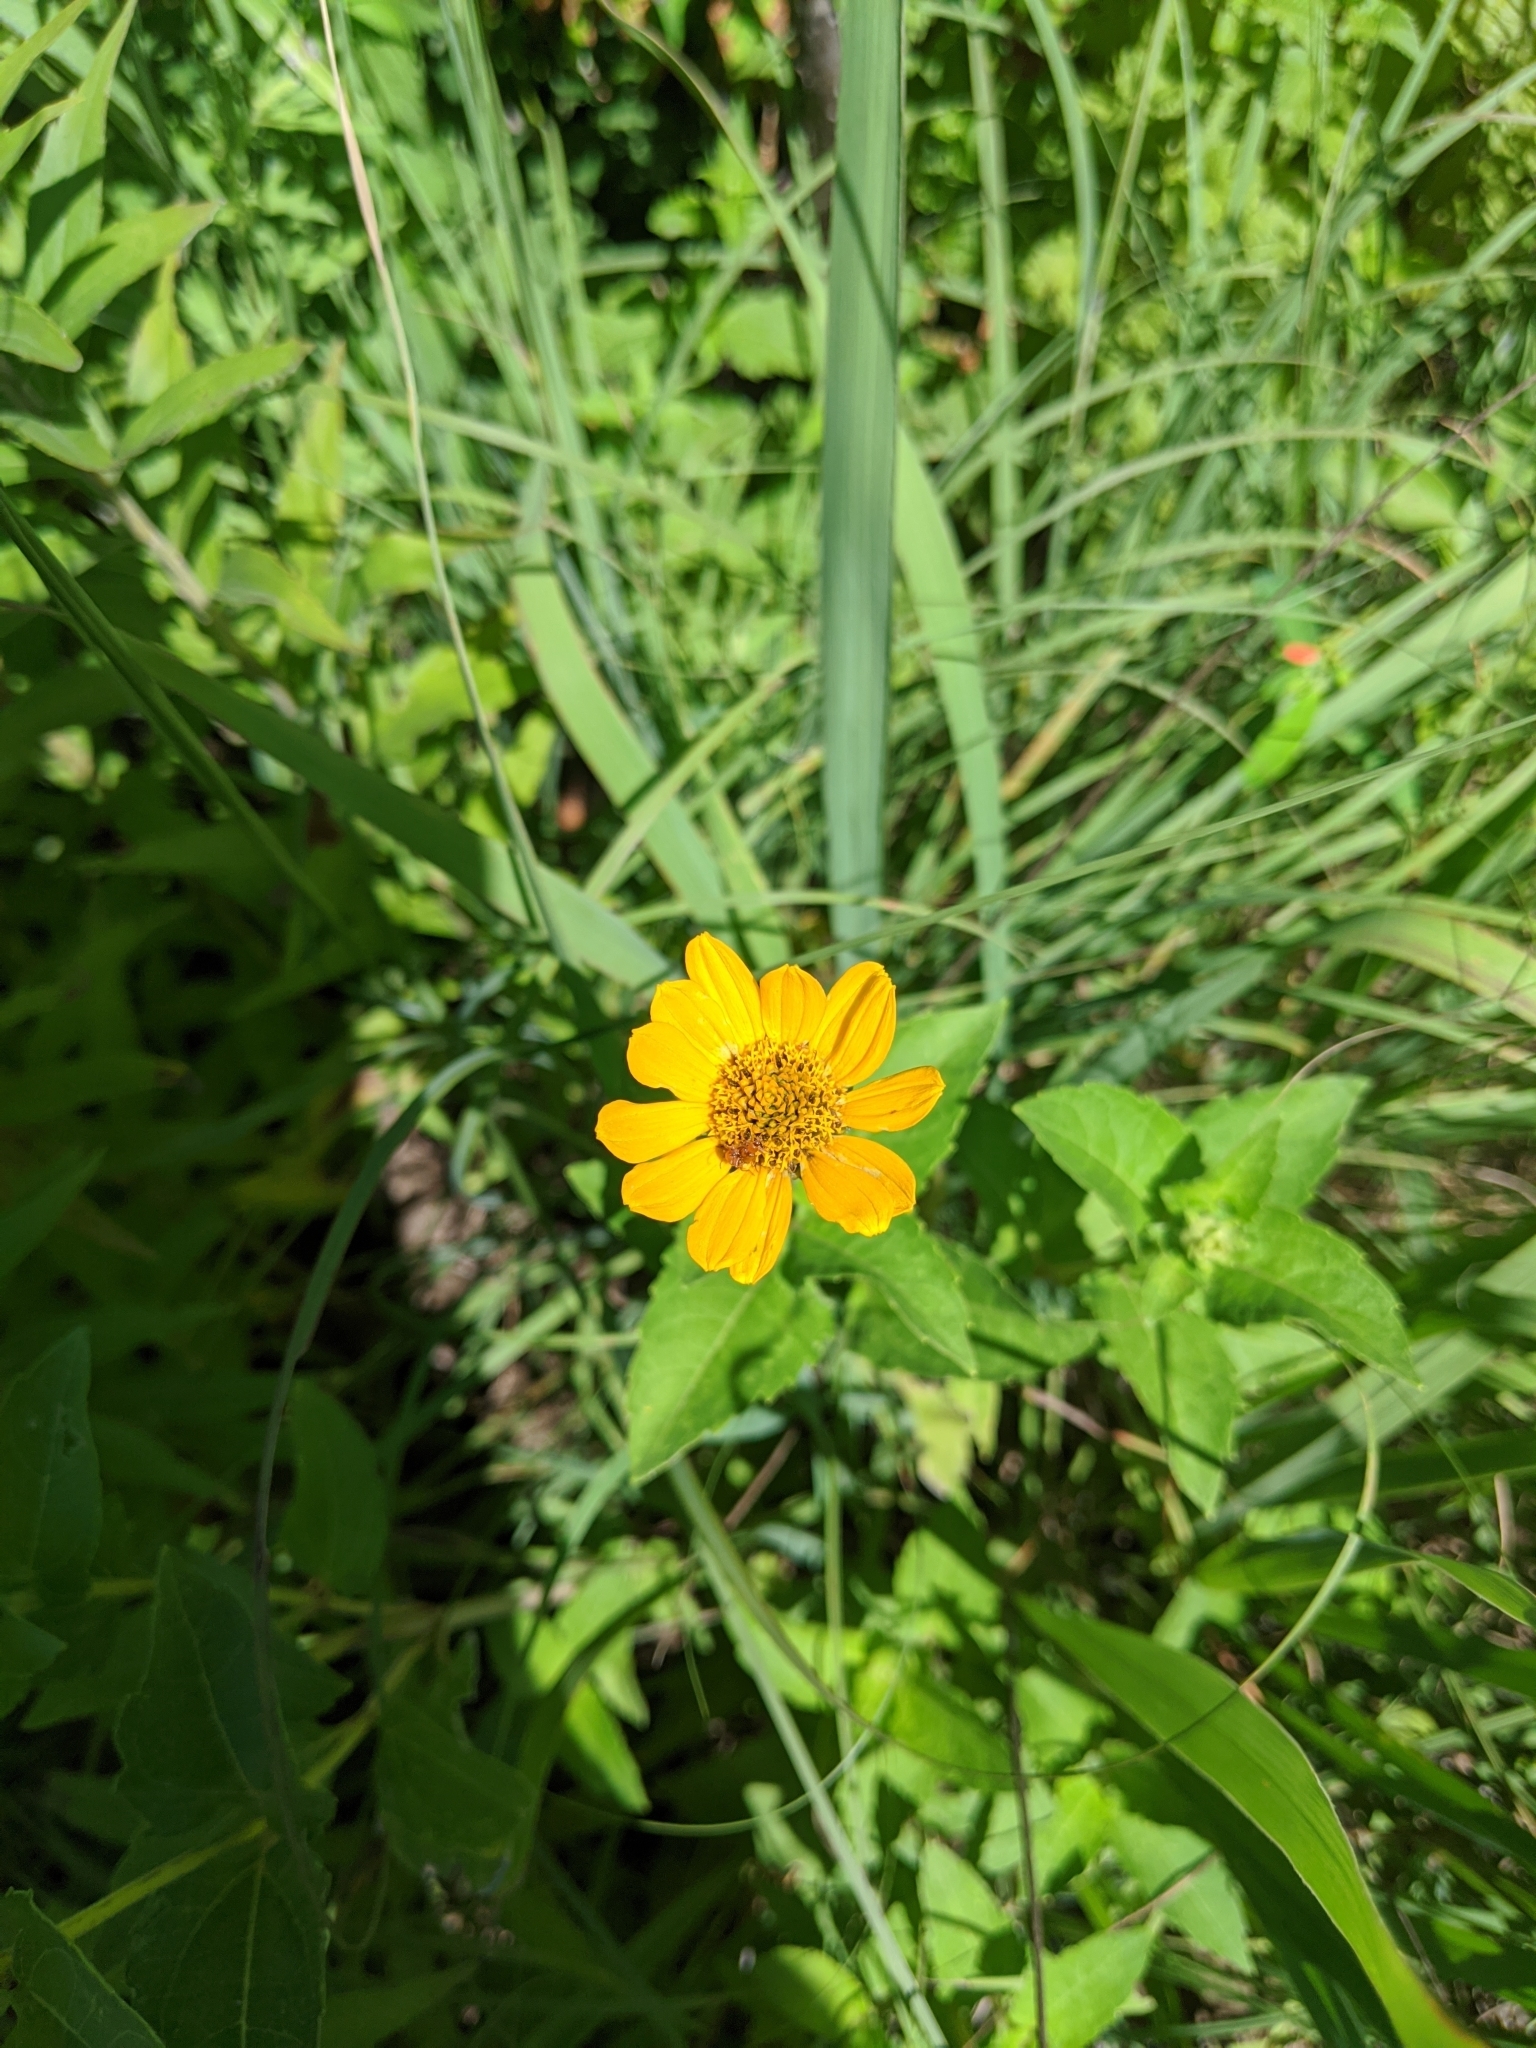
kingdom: Plantae
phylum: Tracheophyta
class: Magnoliopsida
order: Asterales
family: Asteraceae
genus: Heliopsis
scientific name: Heliopsis helianthoides
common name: False sunflower
